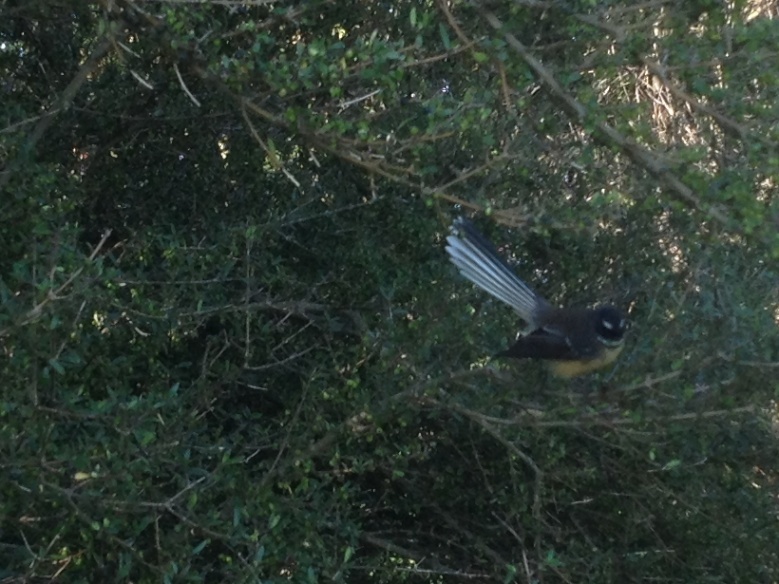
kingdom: Animalia
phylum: Chordata
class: Aves
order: Passeriformes
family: Rhipiduridae
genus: Rhipidura
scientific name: Rhipidura fuliginosa
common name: New zealand fantail
